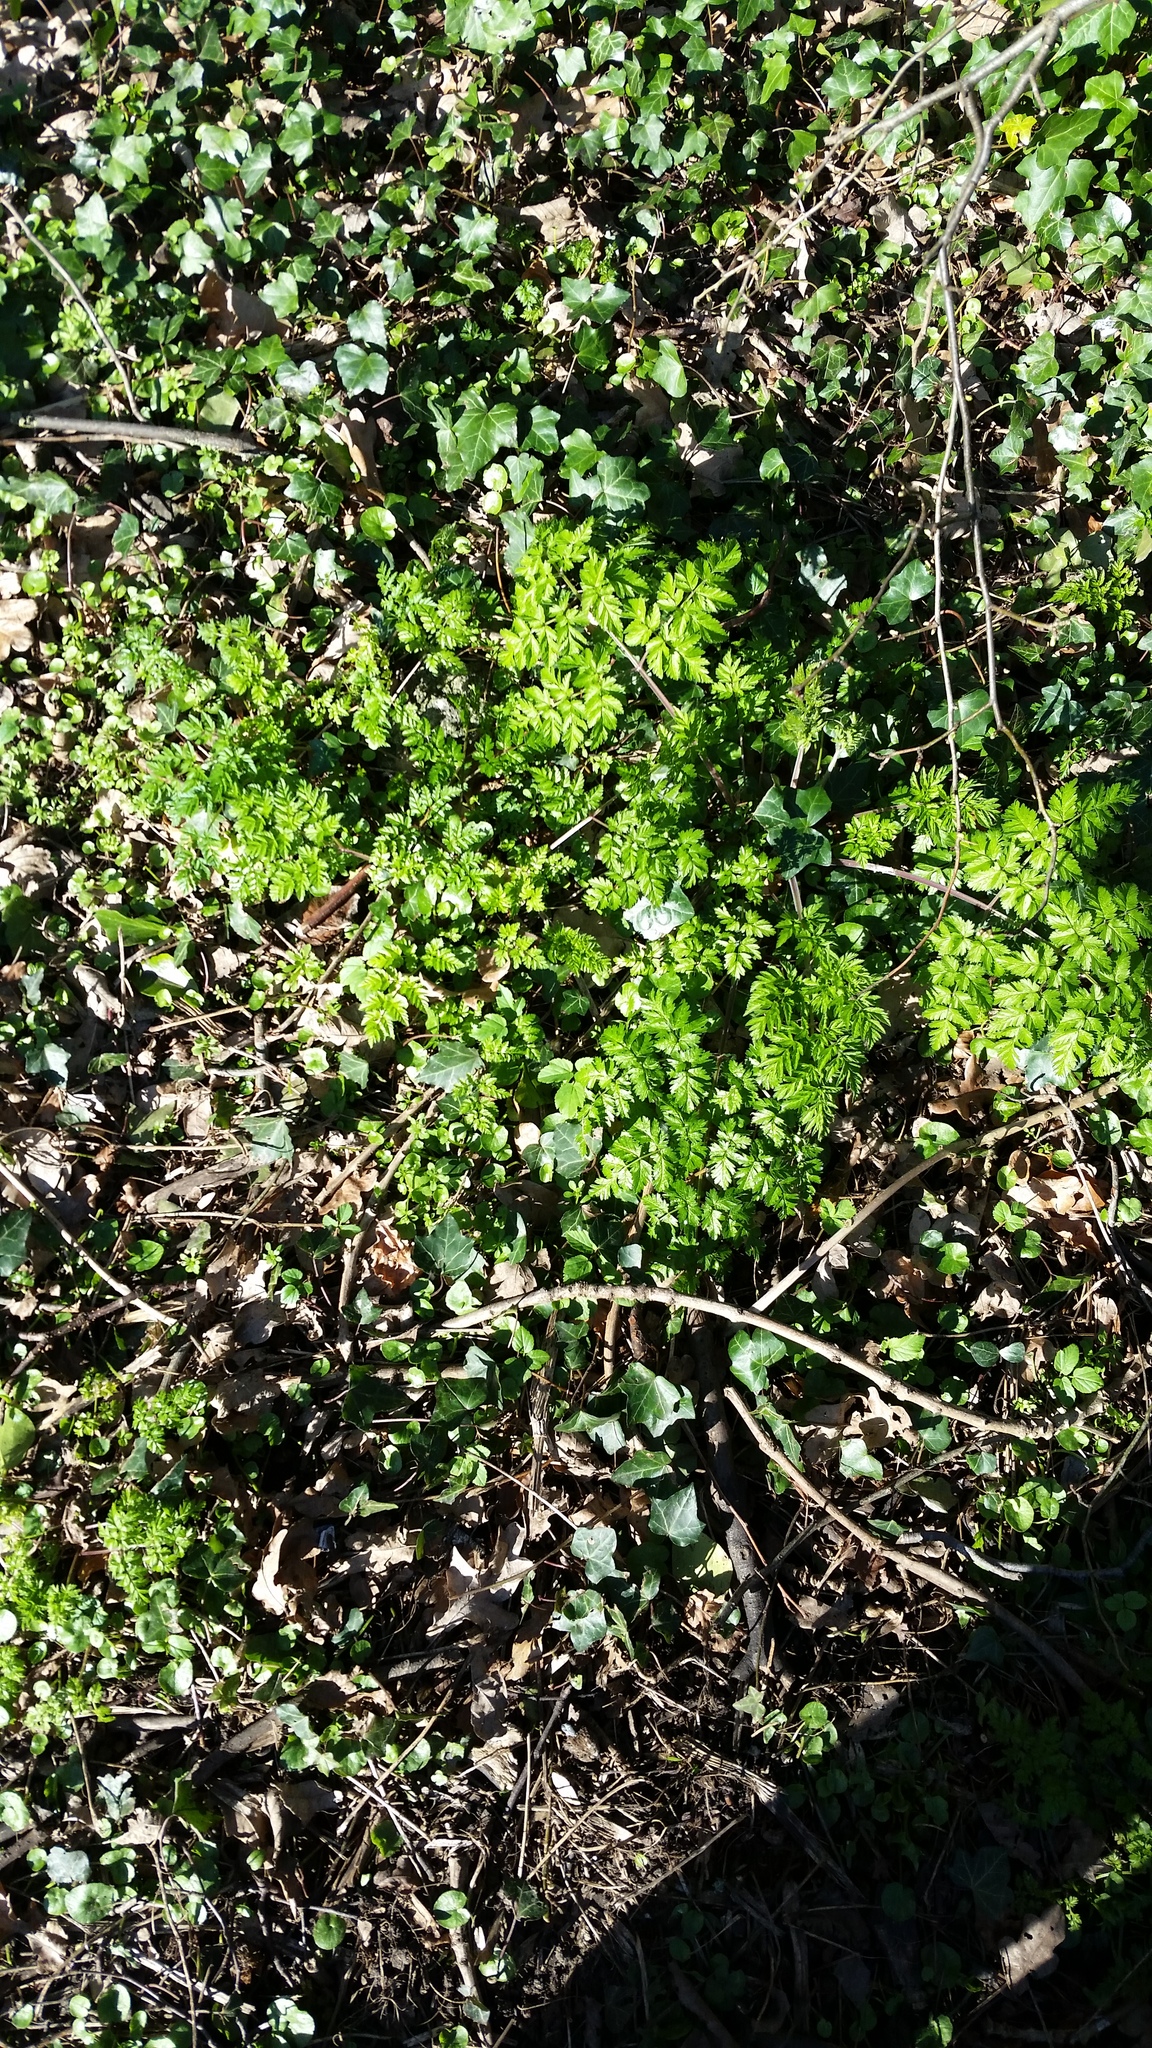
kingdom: Plantae
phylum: Tracheophyta
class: Magnoliopsida
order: Apiales
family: Apiaceae
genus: Anthriscus
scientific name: Anthriscus sylvestris
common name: Cow parsley
